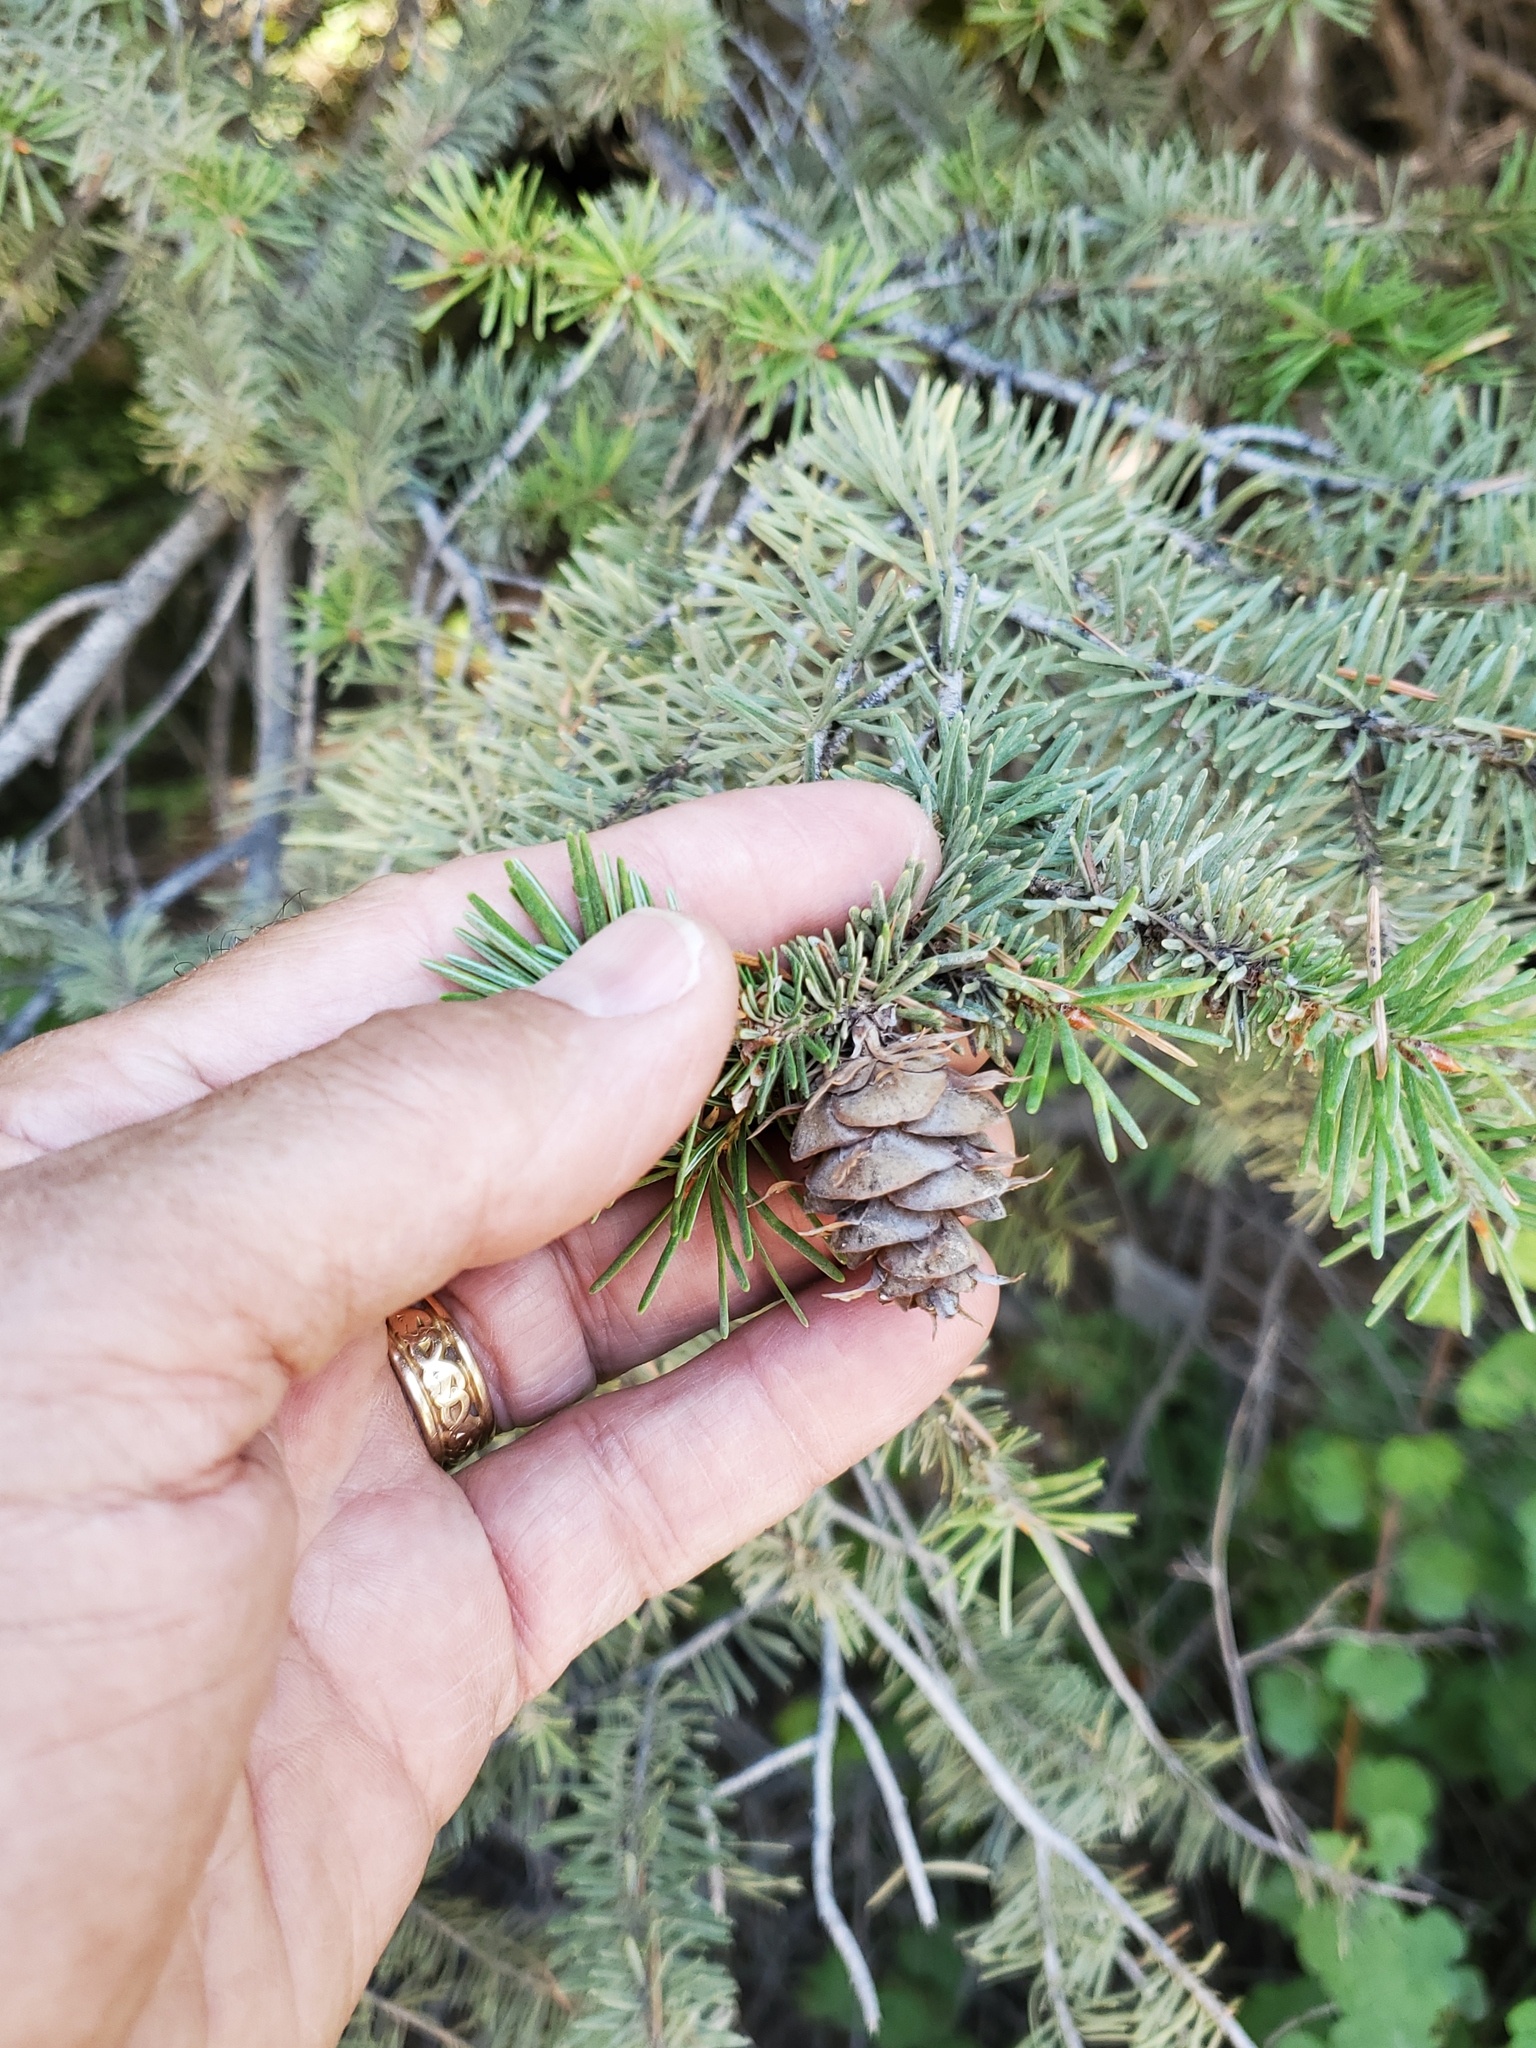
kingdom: Plantae
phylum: Tracheophyta
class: Pinopsida
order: Pinales
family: Pinaceae
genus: Pseudotsuga
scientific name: Pseudotsuga menziesii
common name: Douglas fir
